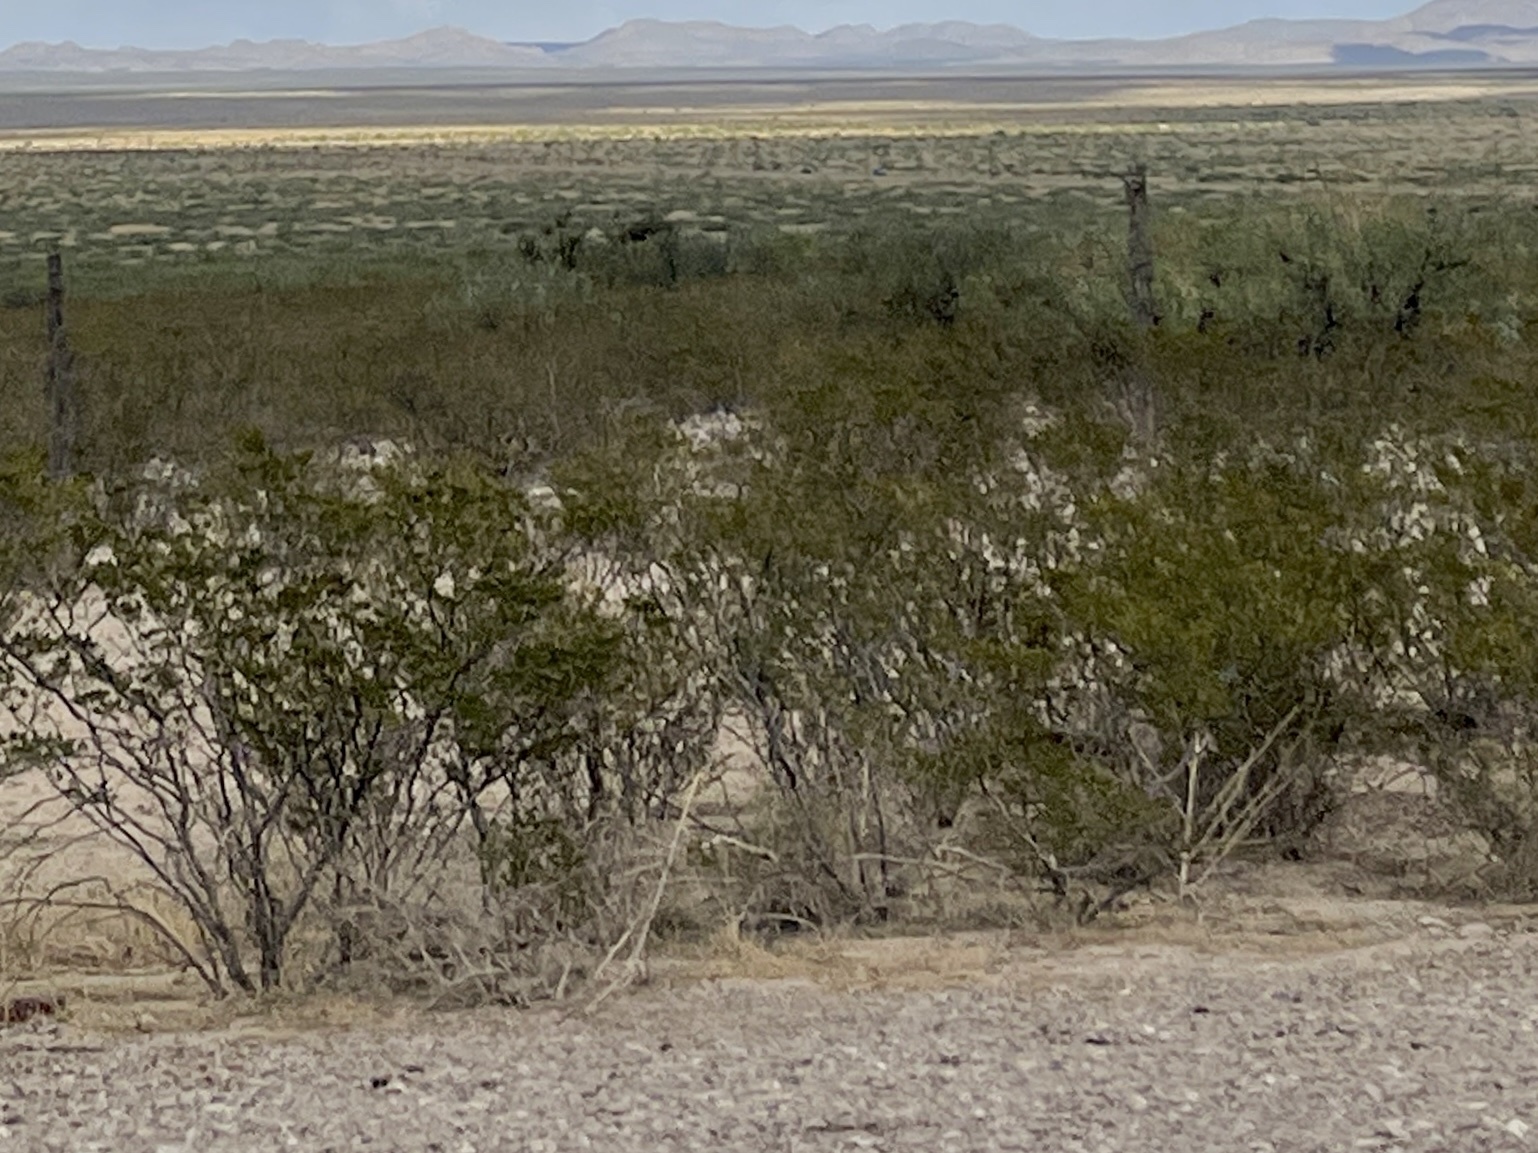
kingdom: Plantae
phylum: Tracheophyta
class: Magnoliopsida
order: Zygophyllales
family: Zygophyllaceae
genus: Larrea
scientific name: Larrea tridentata
